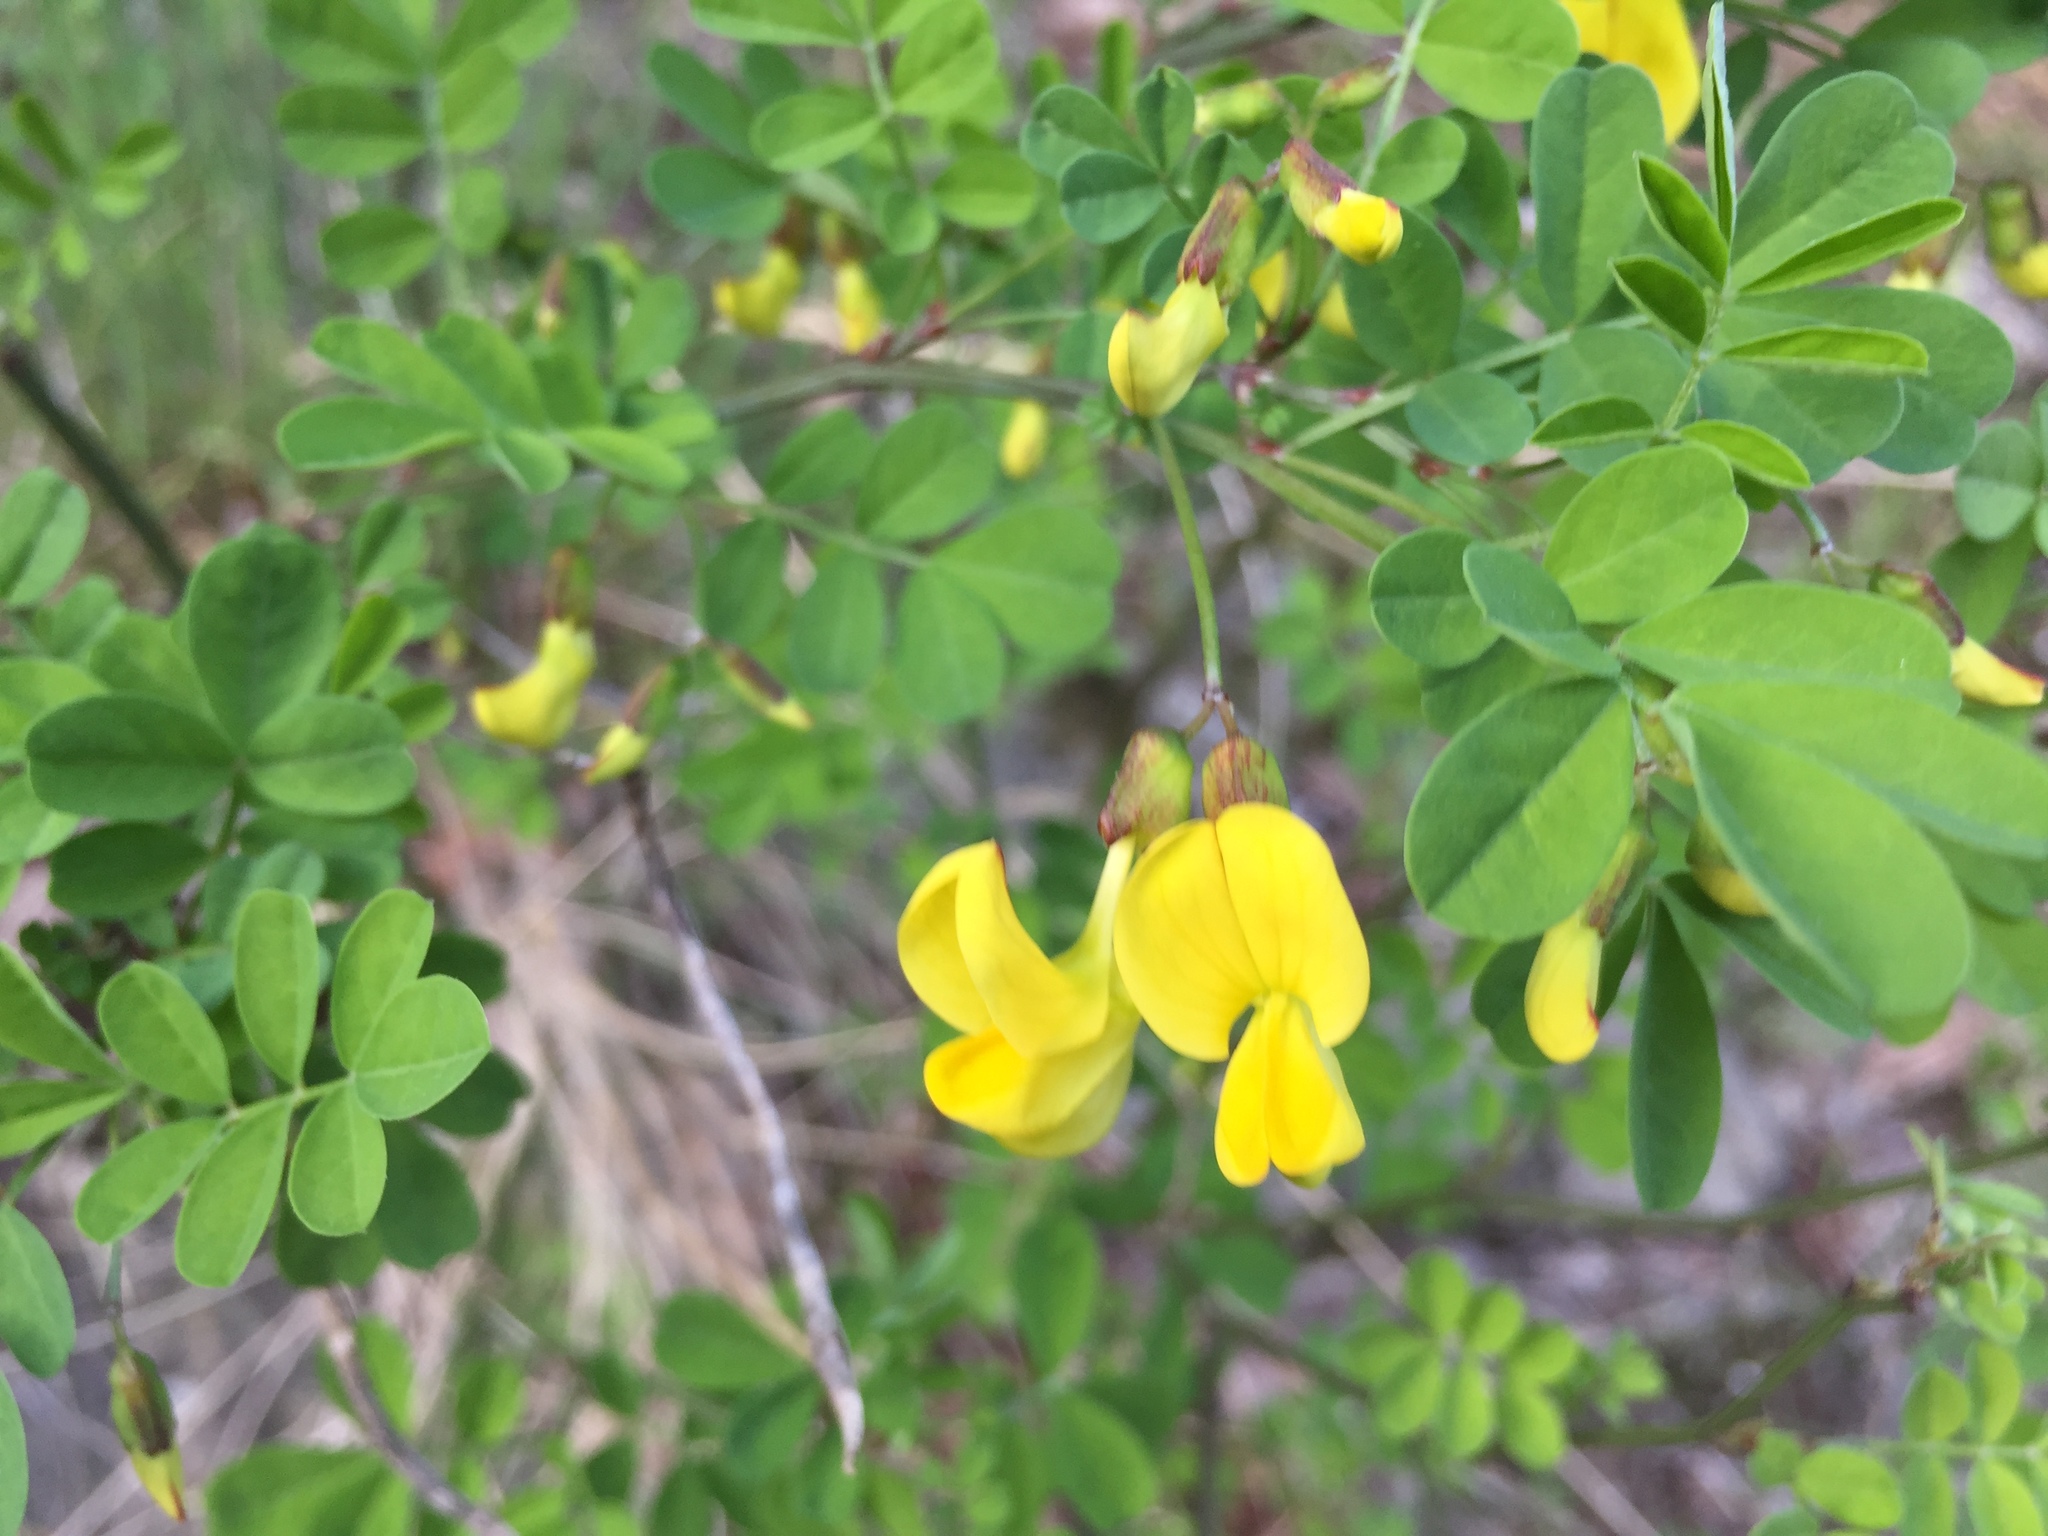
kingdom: Plantae
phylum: Tracheophyta
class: Magnoliopsida
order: Fabales
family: Fabaceae
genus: Hippocrepis
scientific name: Hippocrepis emerus
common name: Scorpion senna
